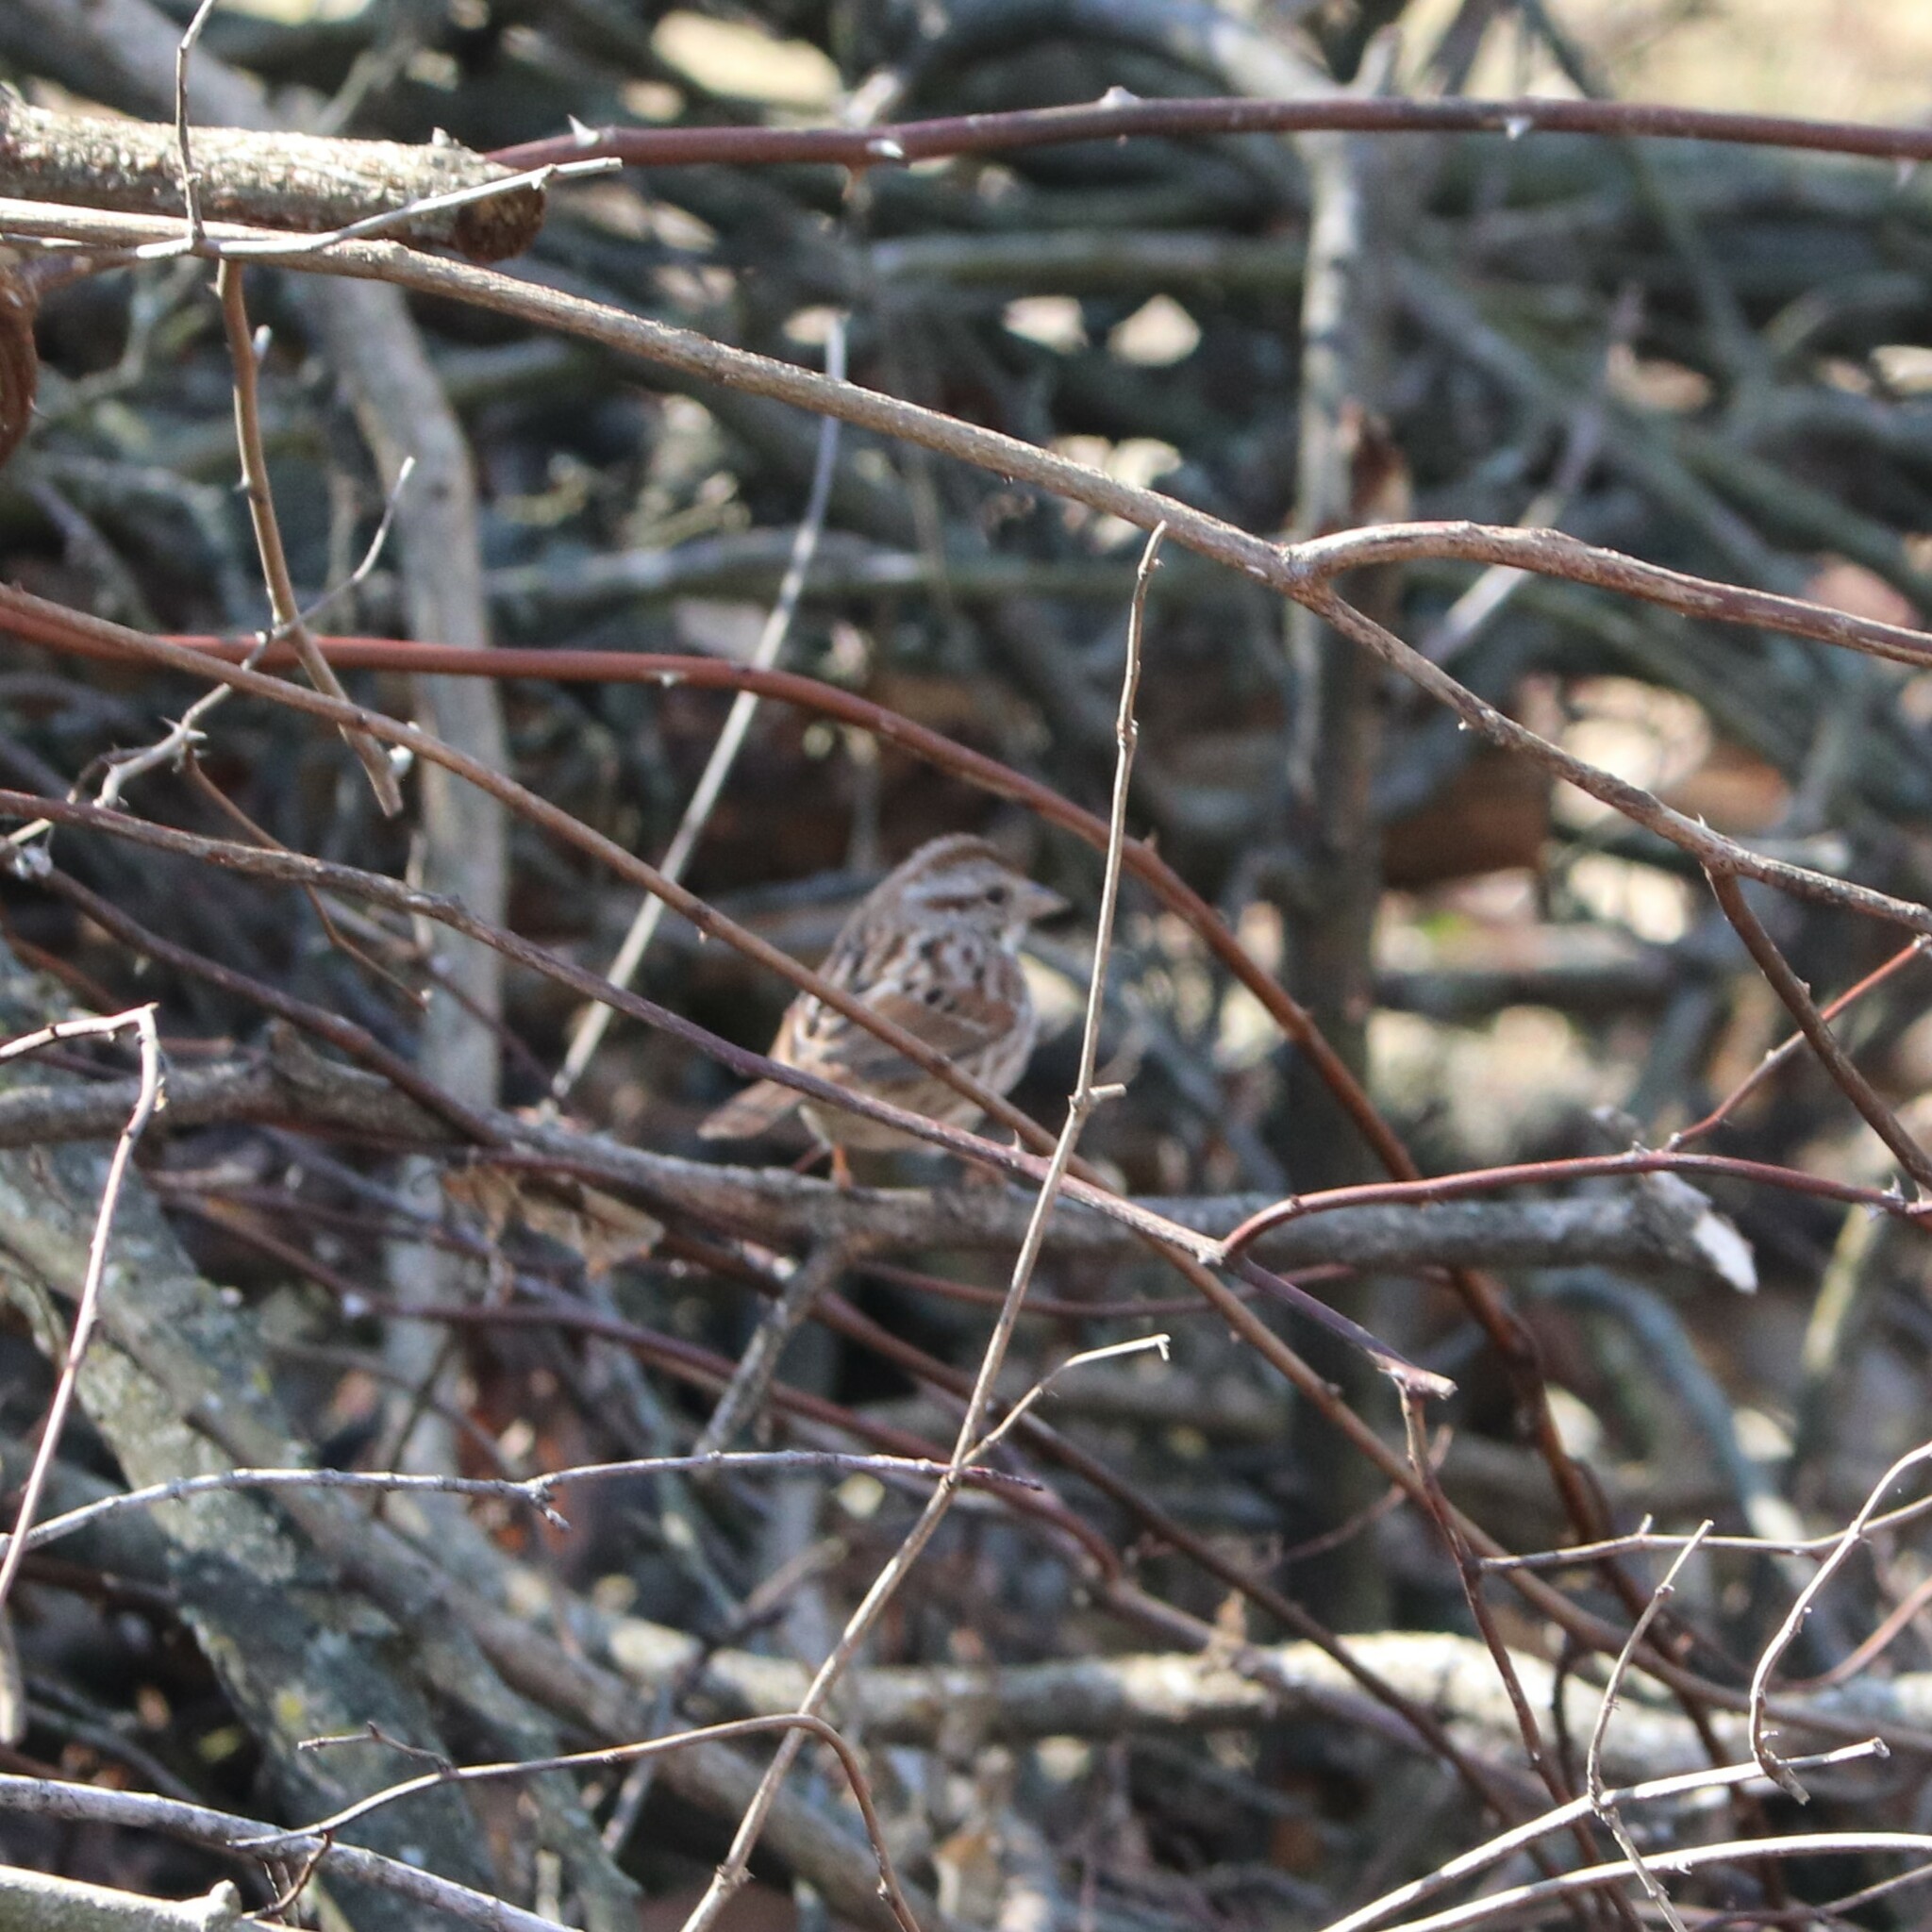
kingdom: Animalia
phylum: Chordata
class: Aves
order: Passeriformes
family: Passerellidae
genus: Melospiza
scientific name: Melospiza melodia
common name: Song sparrow
